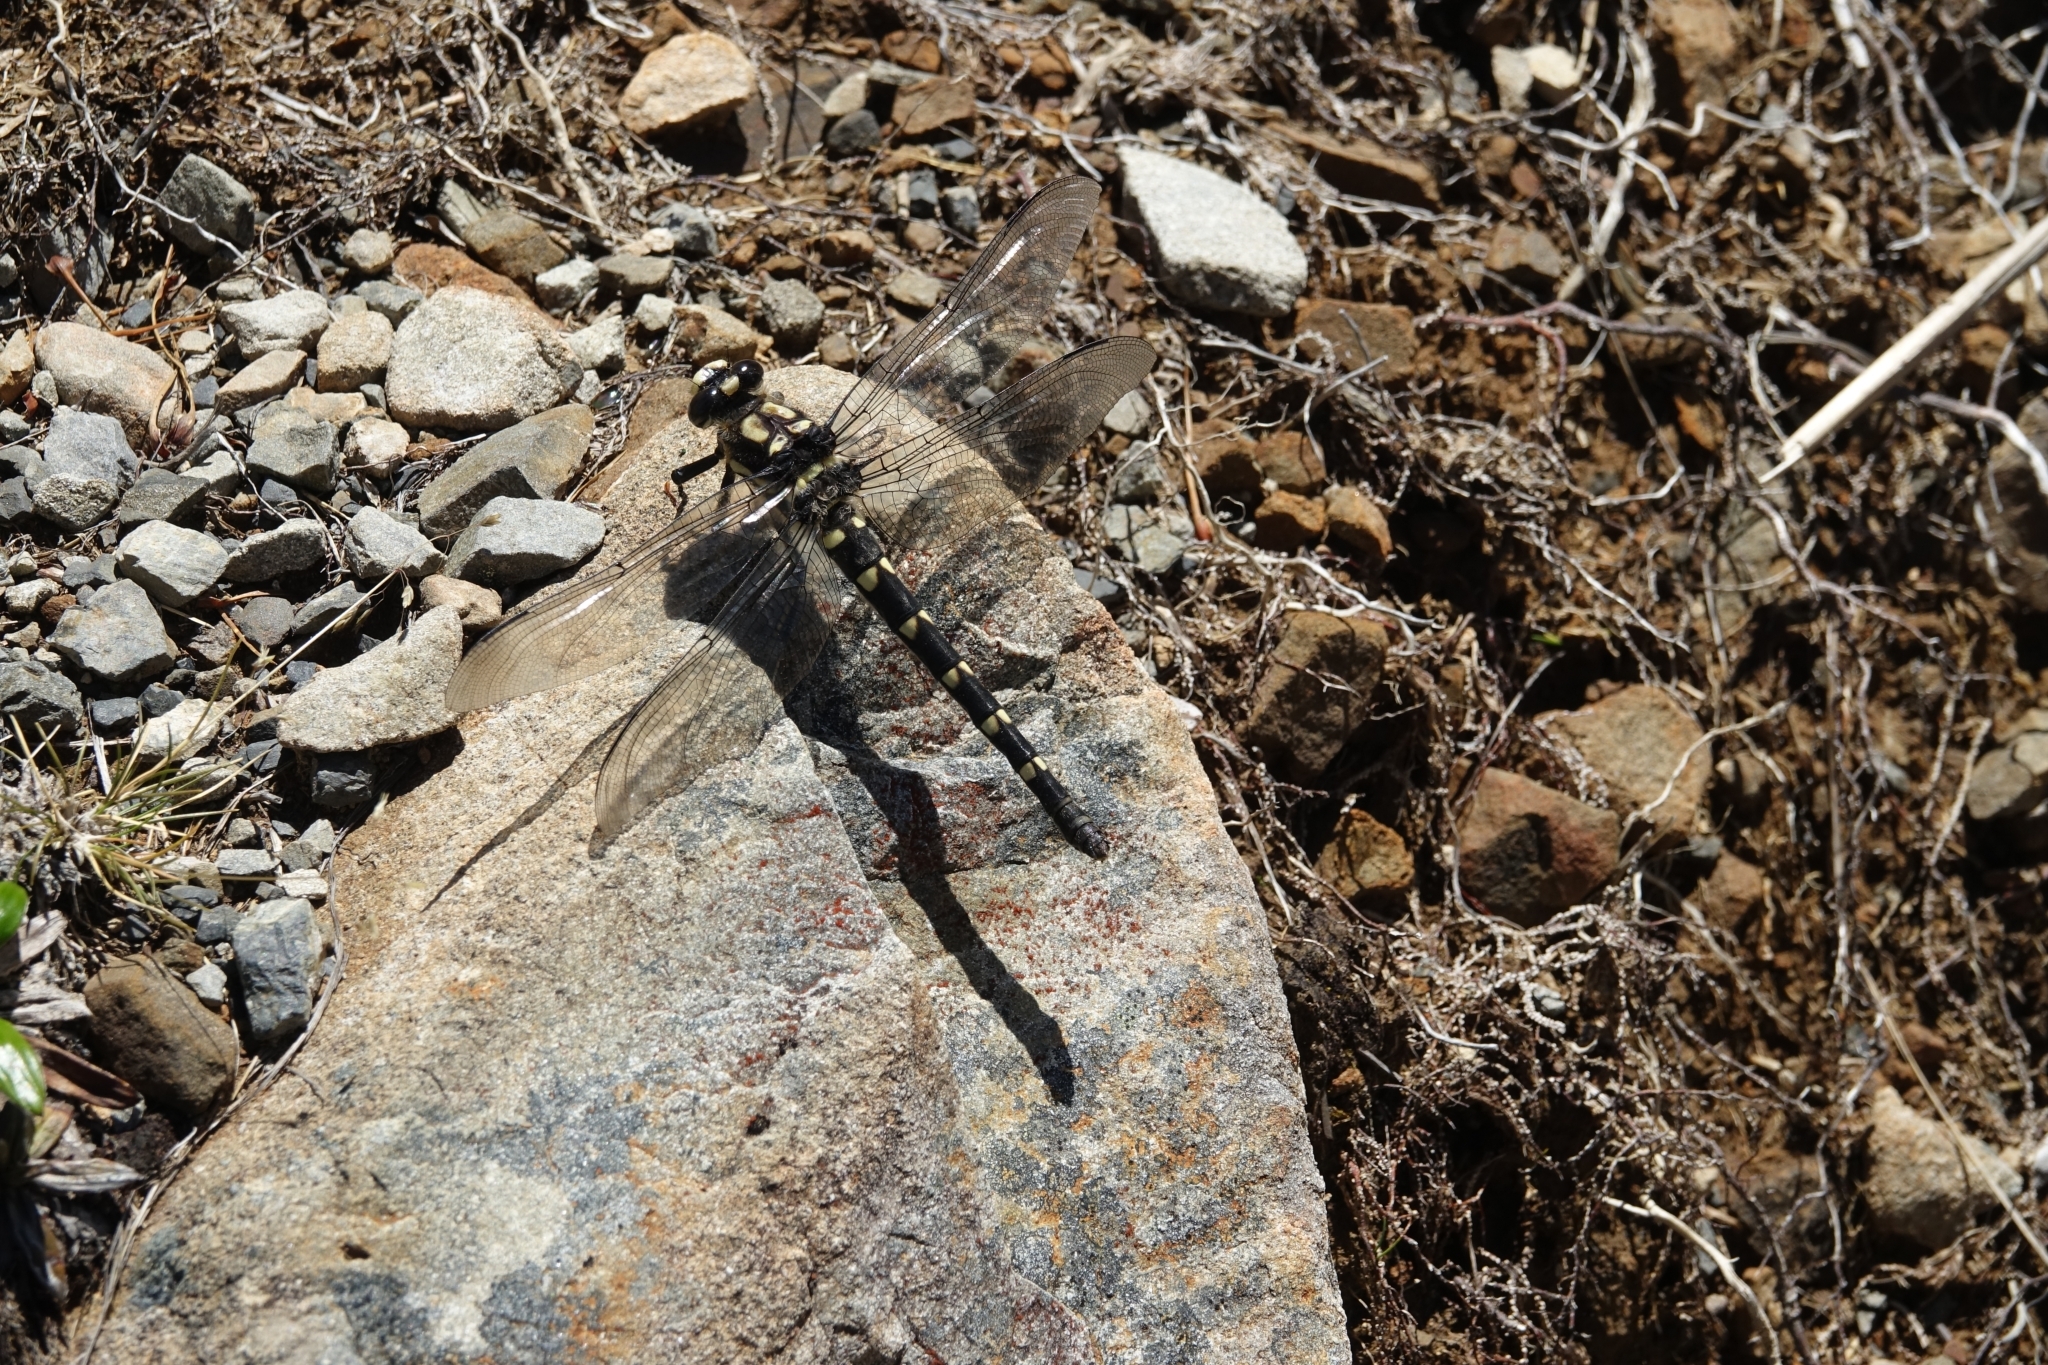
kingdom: Animalia
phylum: Arthropoda
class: Insecta
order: Odonata
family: Petaluridae
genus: Uropetala
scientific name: Uropetala chiltoni
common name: Mountain giant dragonfly
